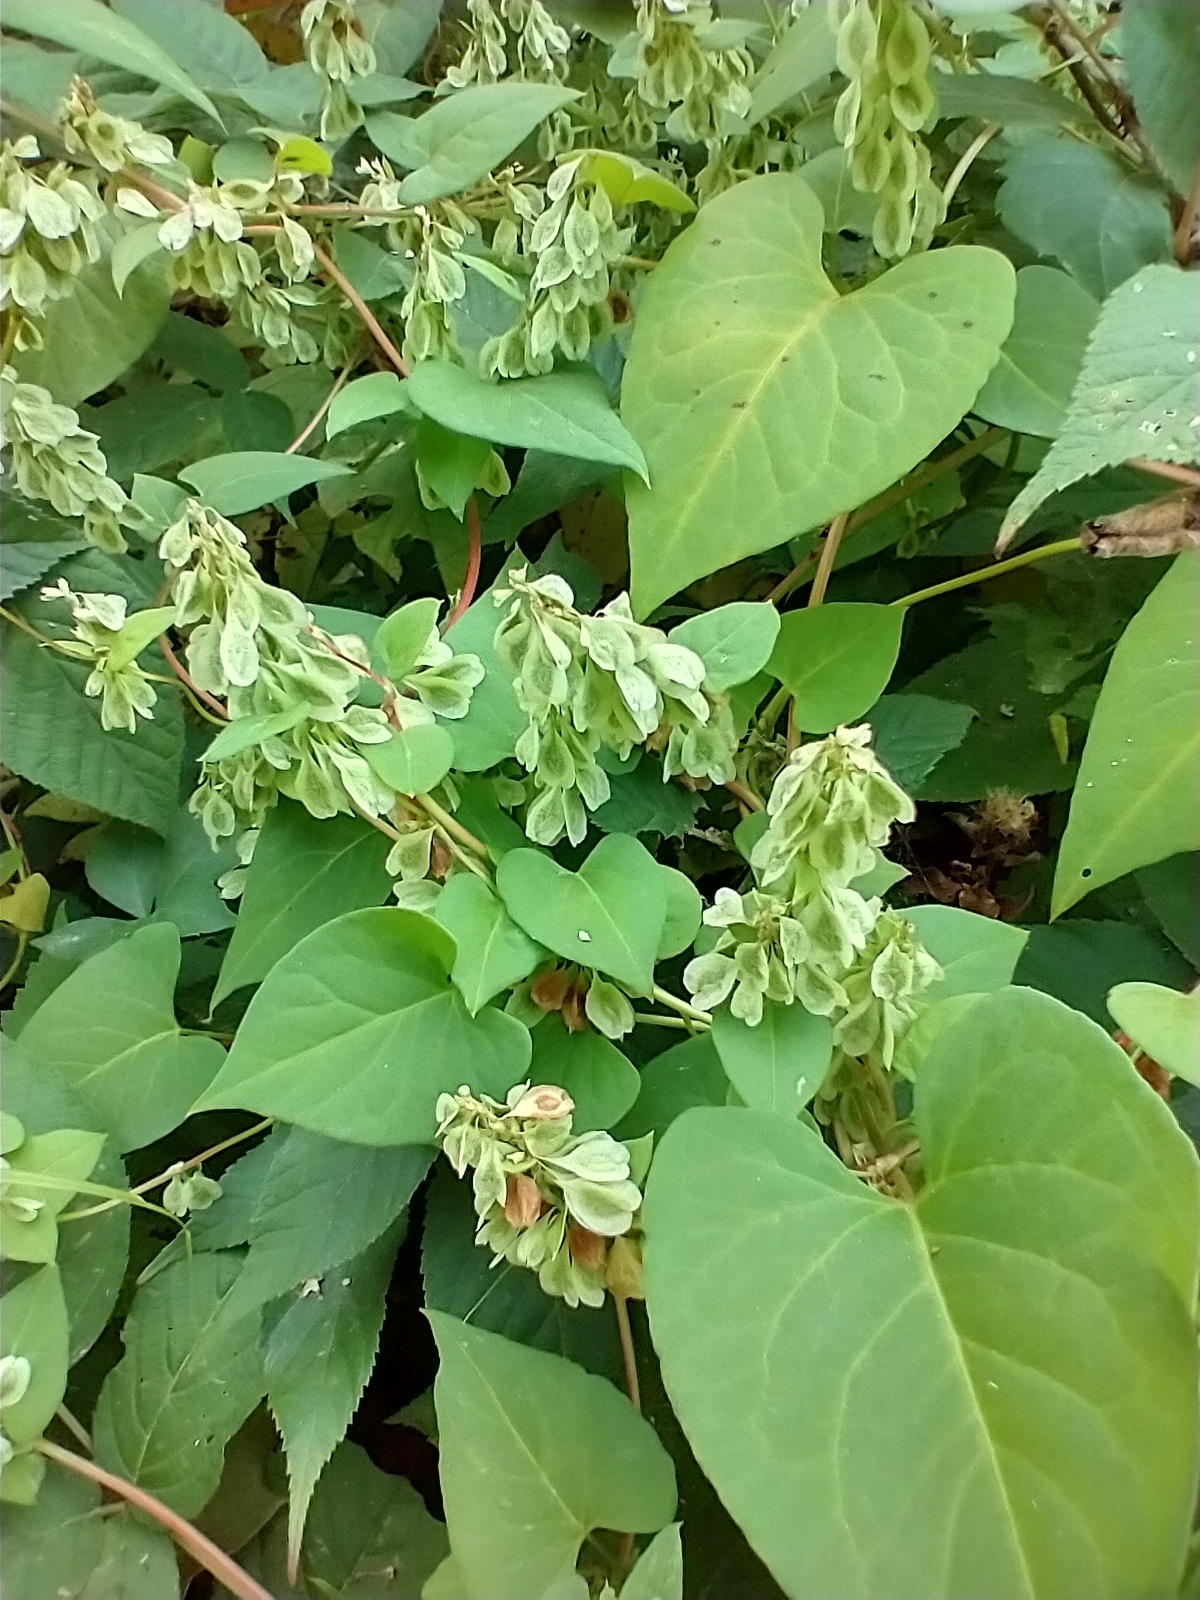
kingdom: Plantae
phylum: Tracheophyta
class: Magnoliopsida
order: Caryophyllales
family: Polygonaceae
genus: Fallopia
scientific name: Fallopia scandens
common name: Climbing false buckwheat
